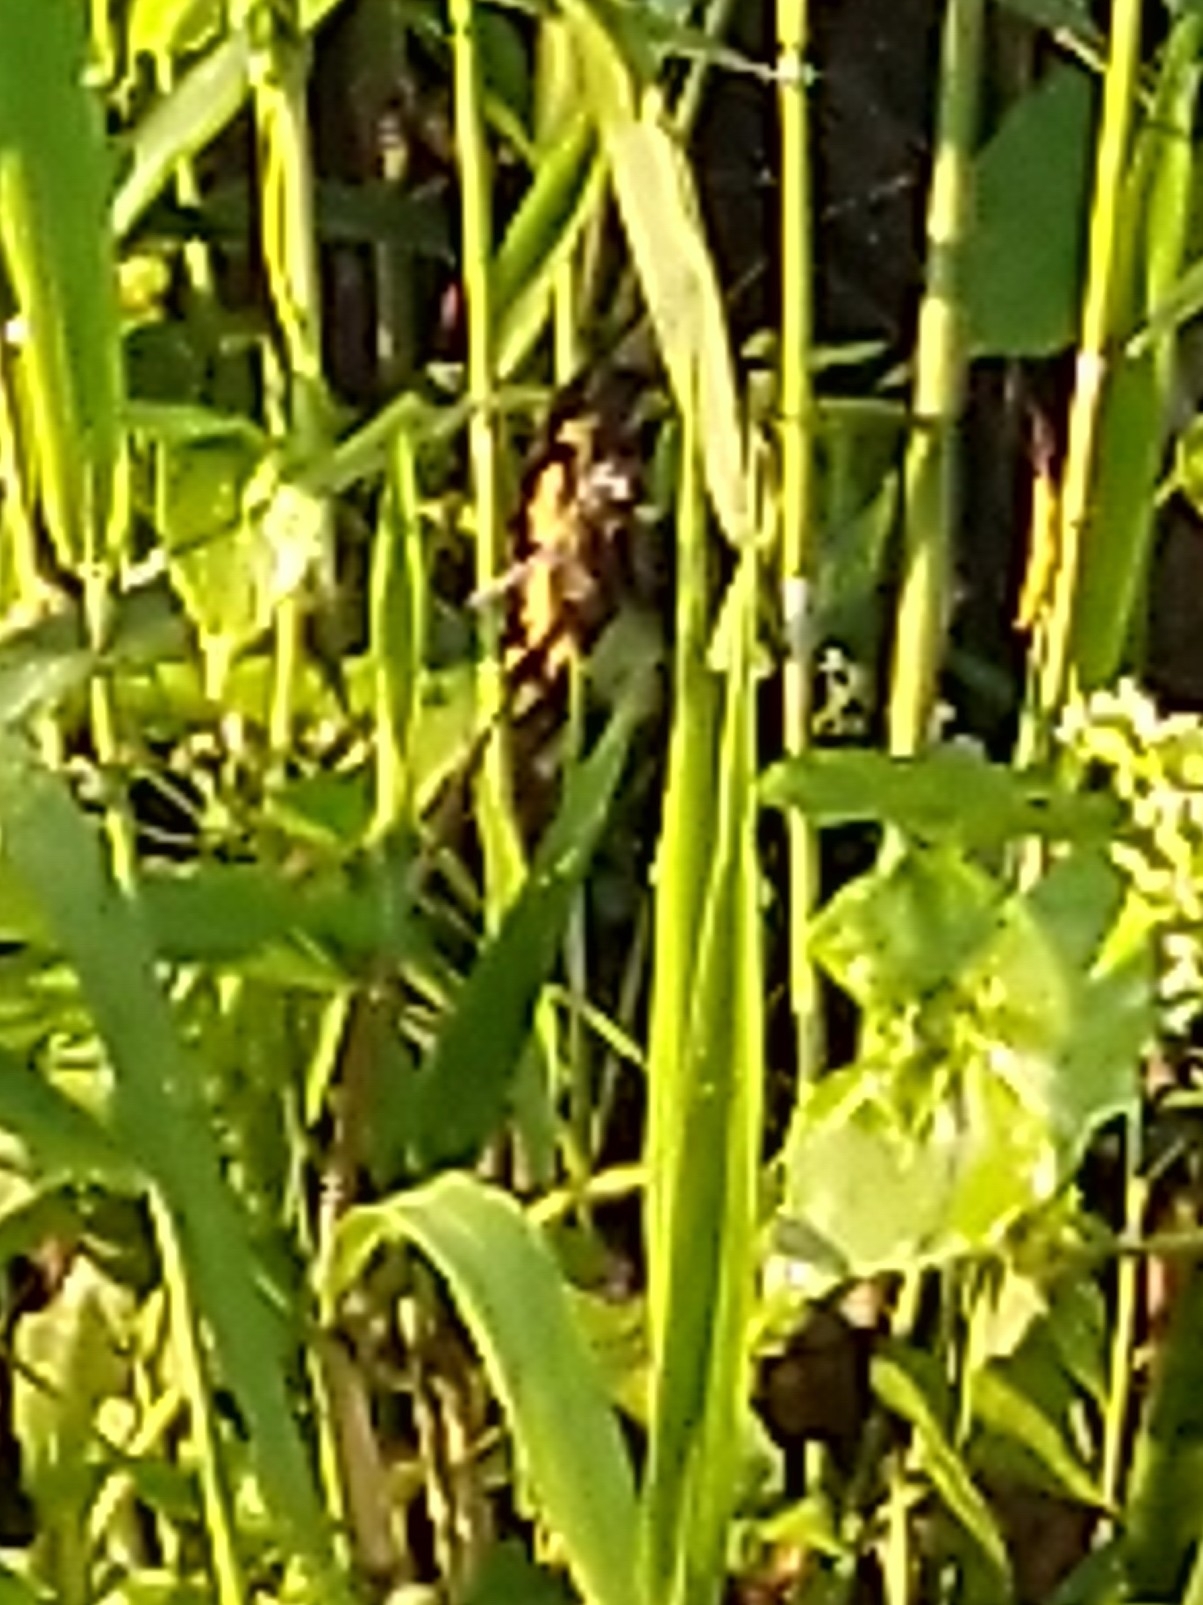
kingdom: Animalia
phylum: Arthropoda
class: Insecta
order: Odonata
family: Libellulidae
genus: Rhyothemis
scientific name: Rhyothemis variegata
